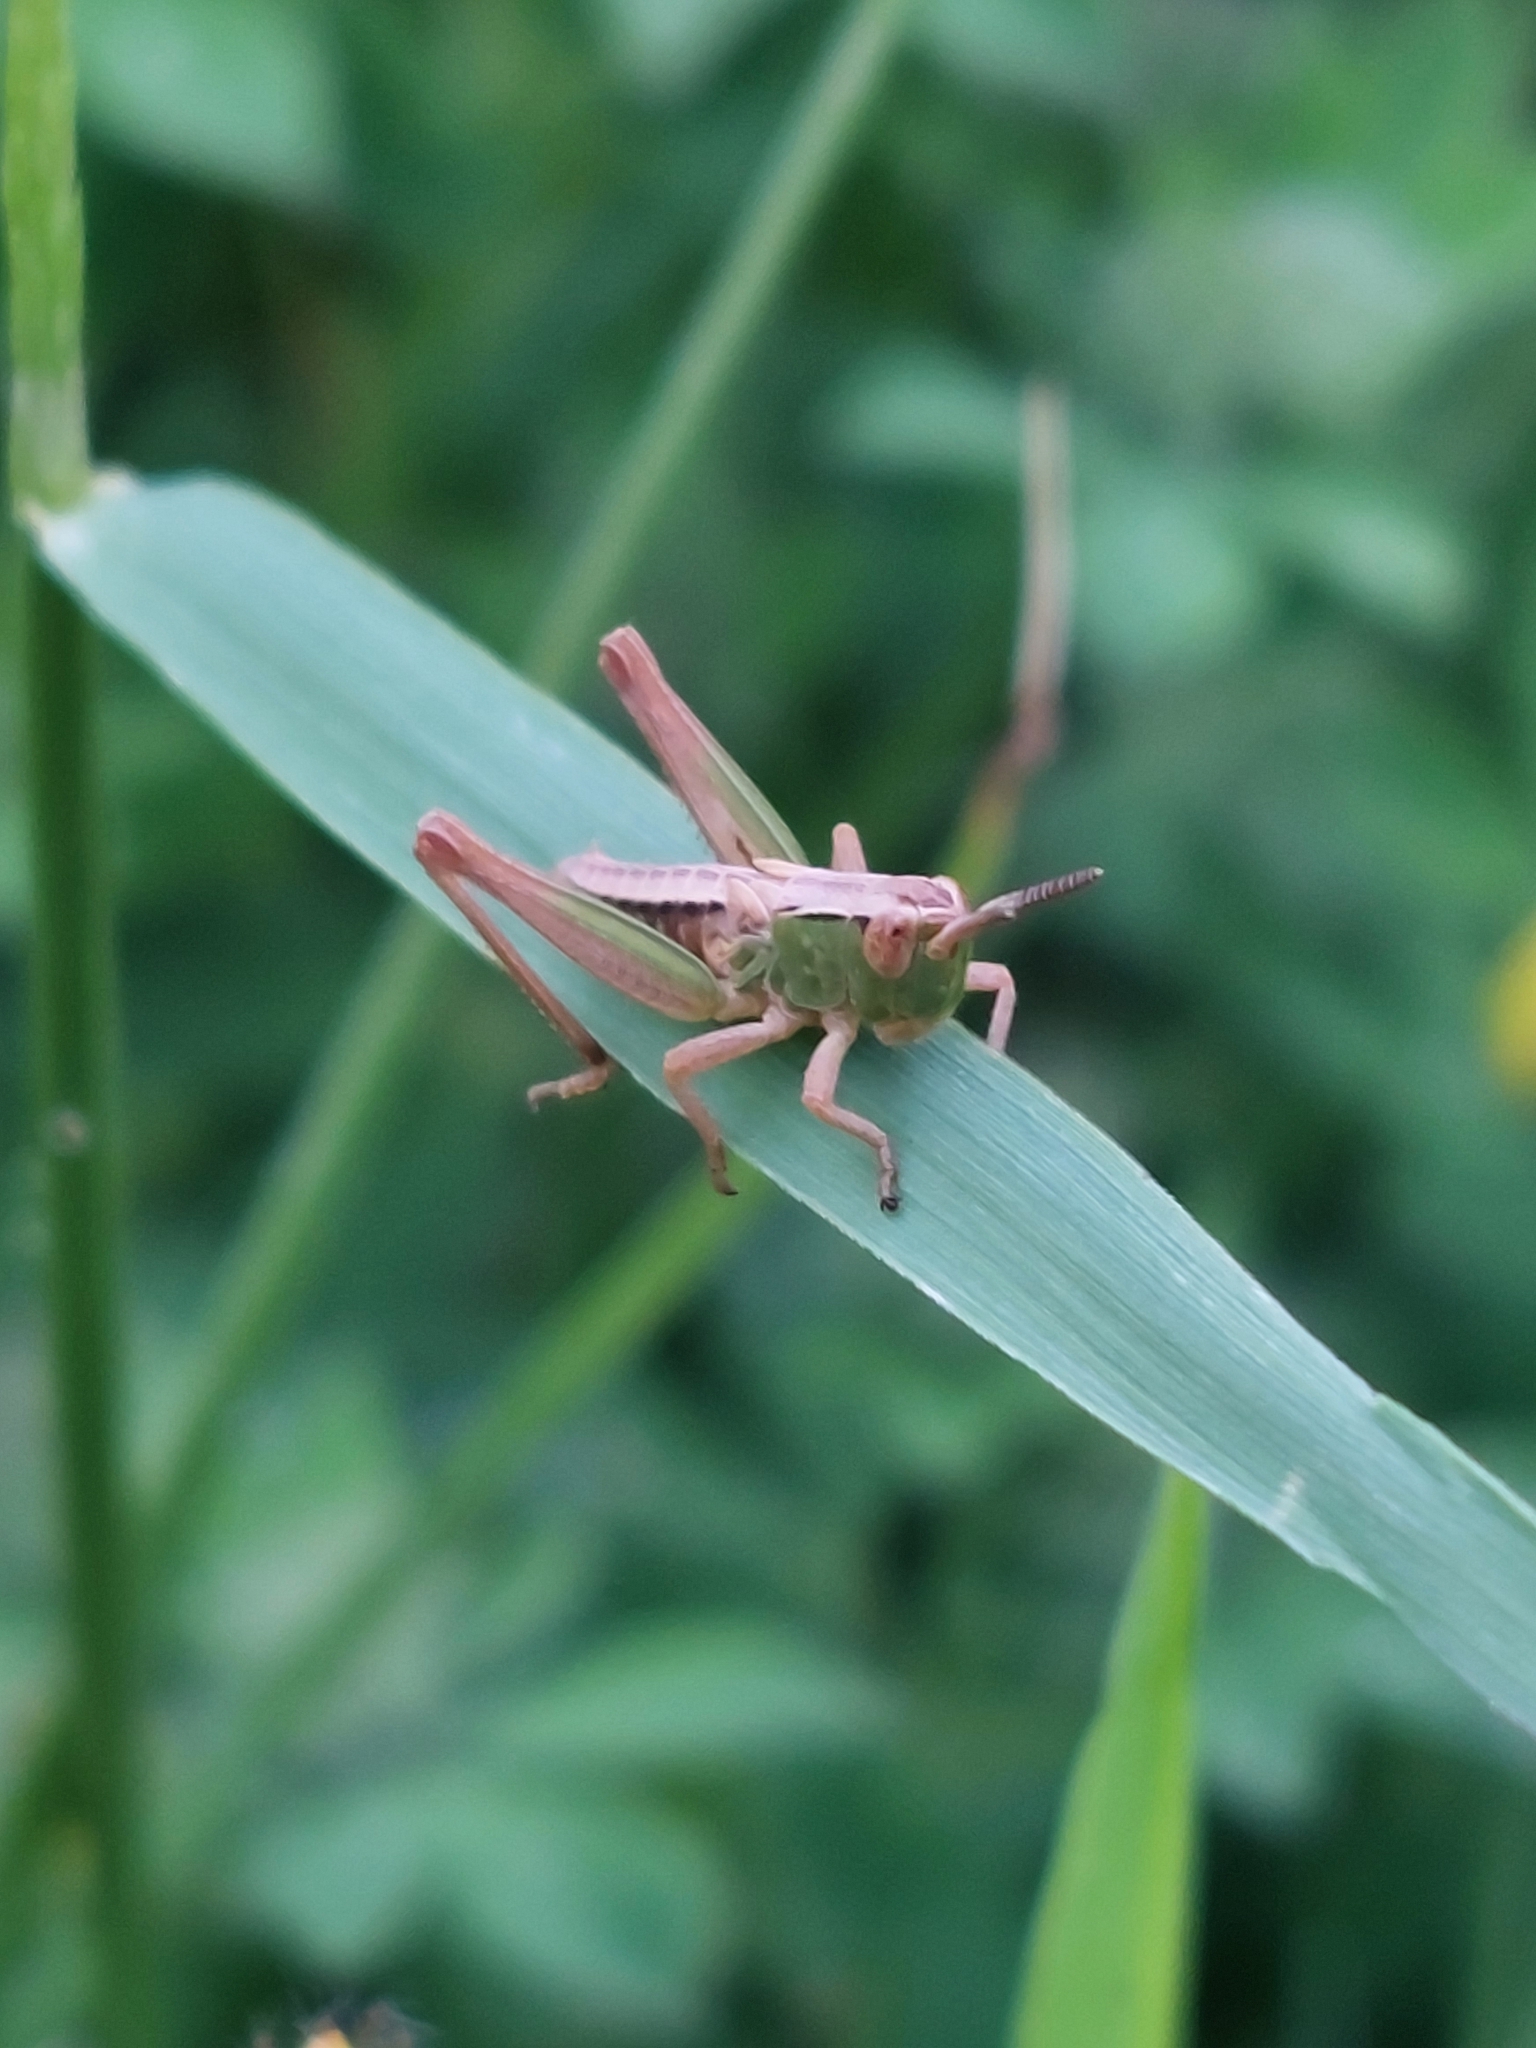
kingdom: Animalia
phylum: Arthropoda
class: Insecta
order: Orthoptera
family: Acrididae
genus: Pseudochorthippus
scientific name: Pseudochorthippus parallelus
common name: Meadow grasshopper
